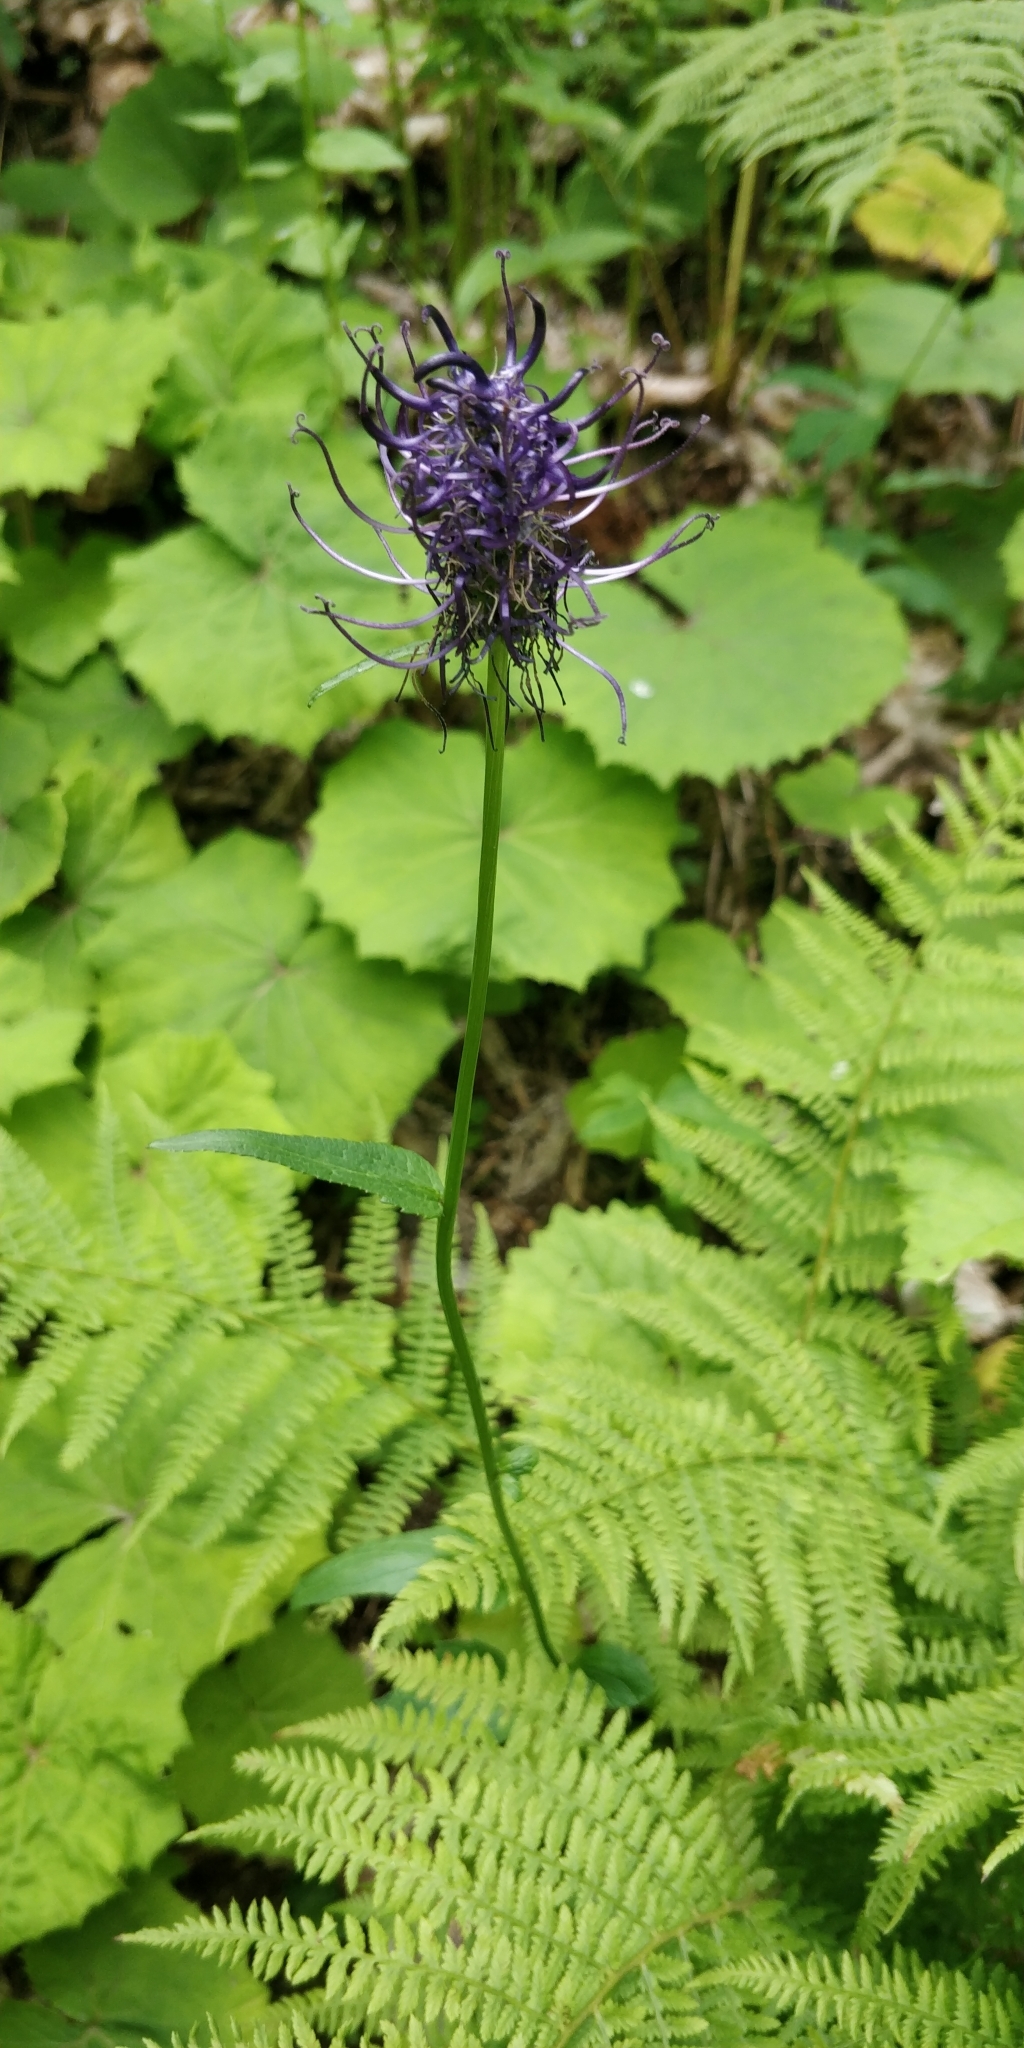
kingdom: Plantae
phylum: Tracheophyta
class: Magnoliopsida
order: Asterales
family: Campanulaceae
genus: Phyteuma
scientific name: Phyteuma ovatum
